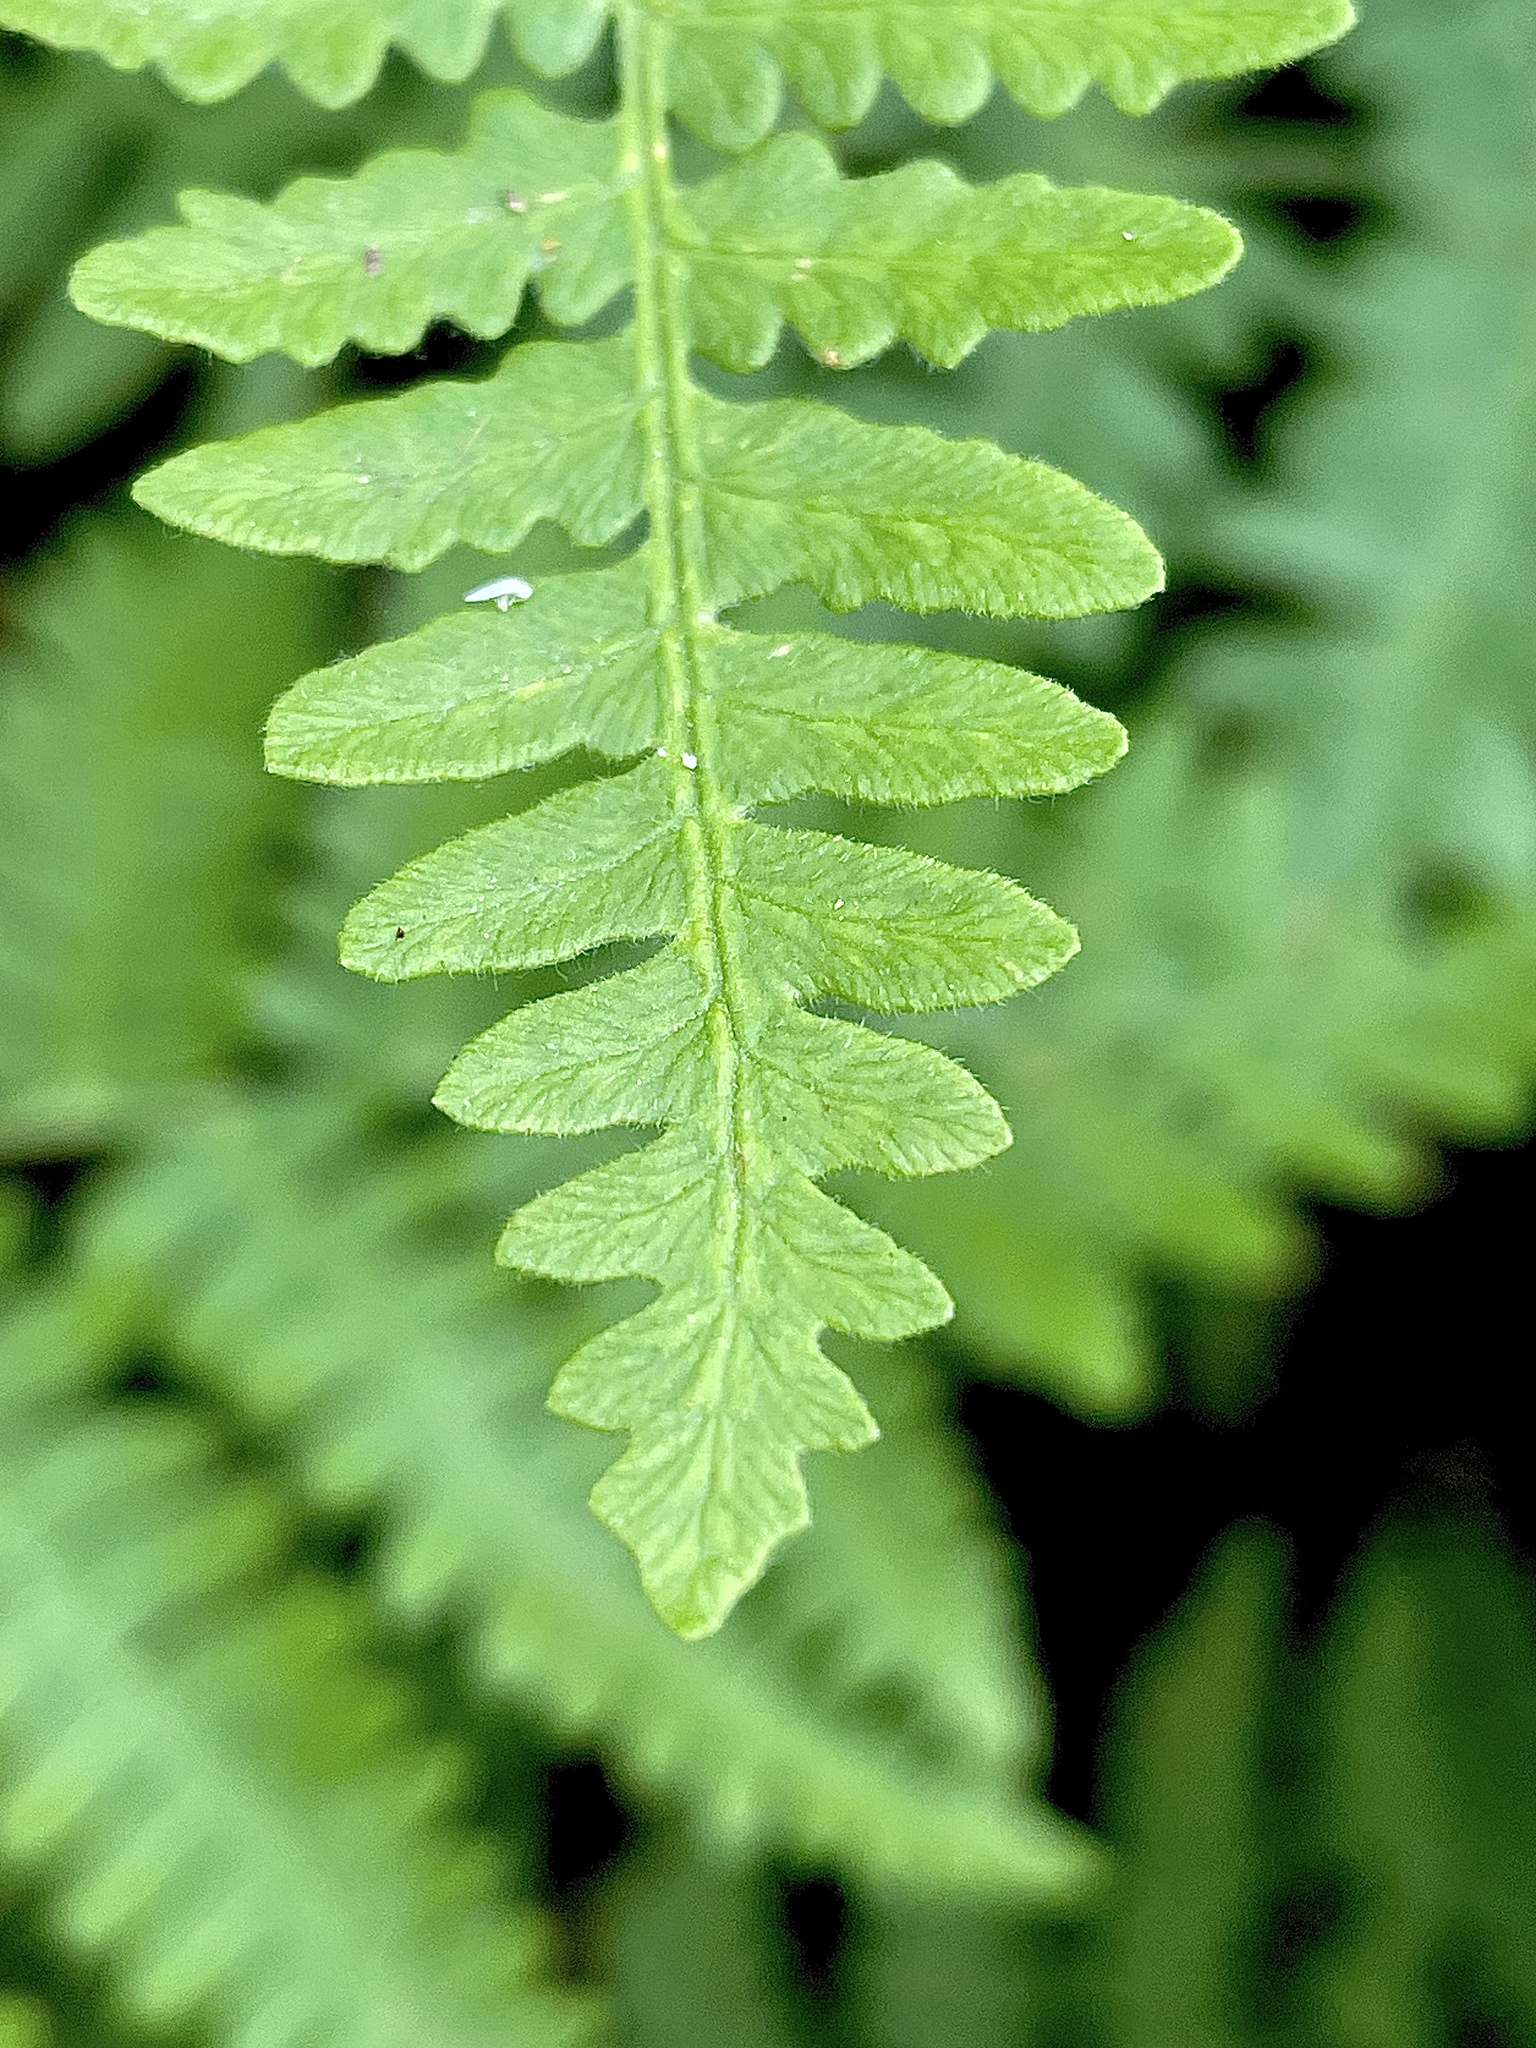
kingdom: Plantae
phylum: Tracheophyta
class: Polypodiopsida
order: Polypodiales
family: Dennstaedtiaceae
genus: Pteridium
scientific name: Pteridium aquilinum
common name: Bracken
